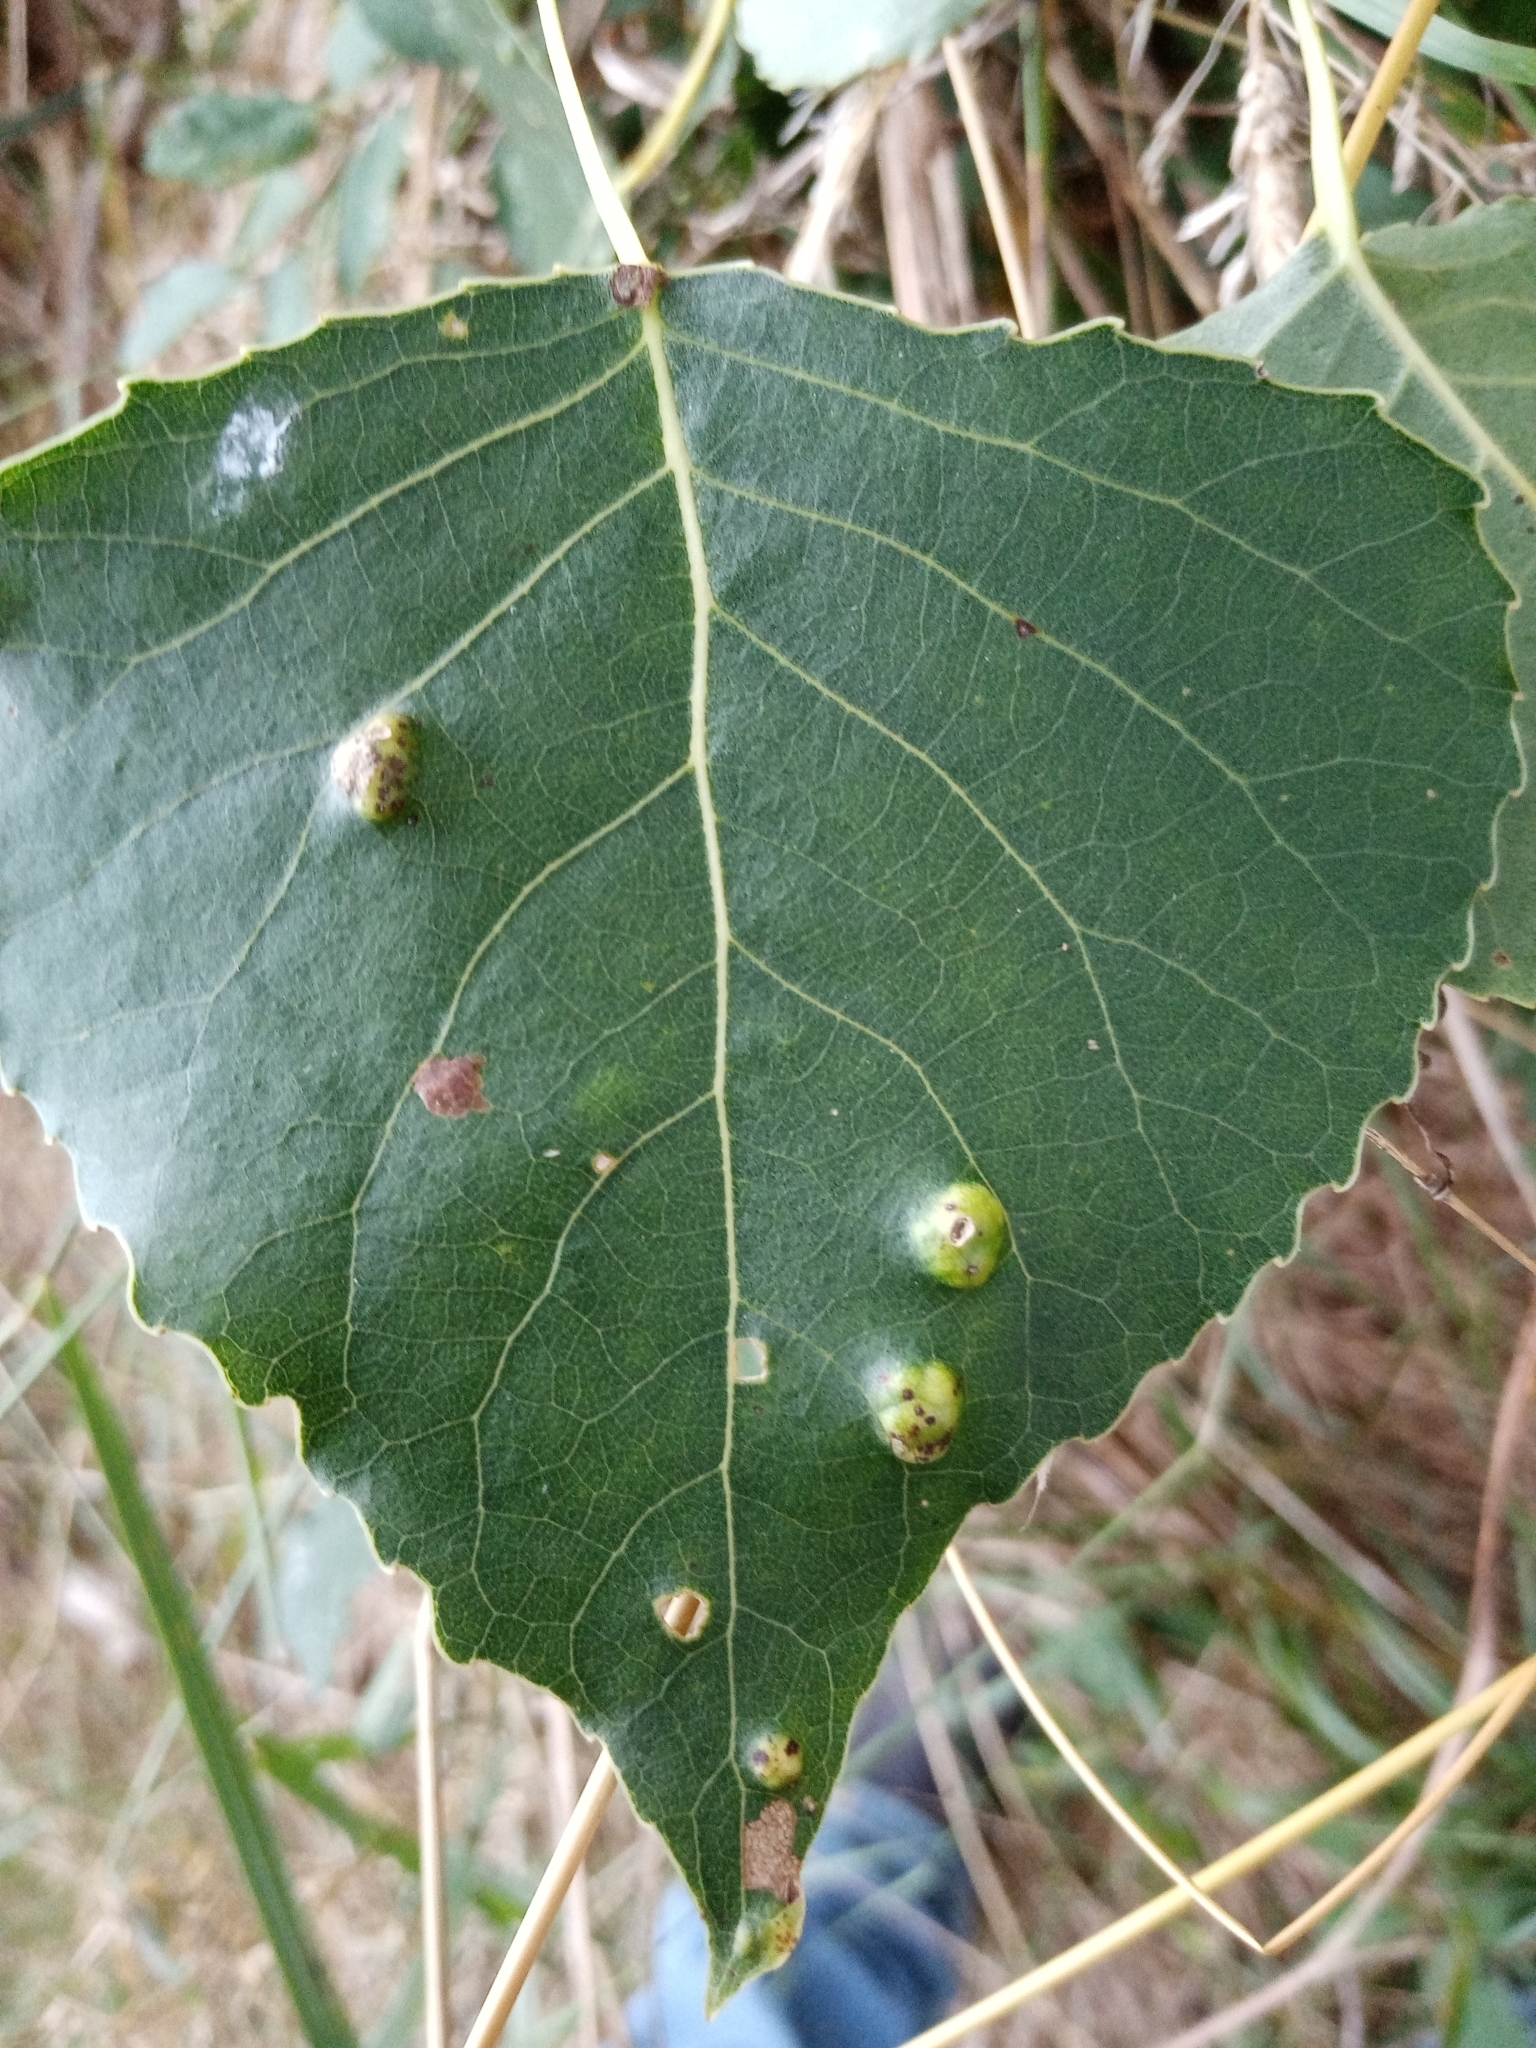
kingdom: Animalia
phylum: Arthropoda
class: Arachnida
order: Trombidiformes
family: Eriophyidae
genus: Phyllocoptes
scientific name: Phyllocoptes populi
